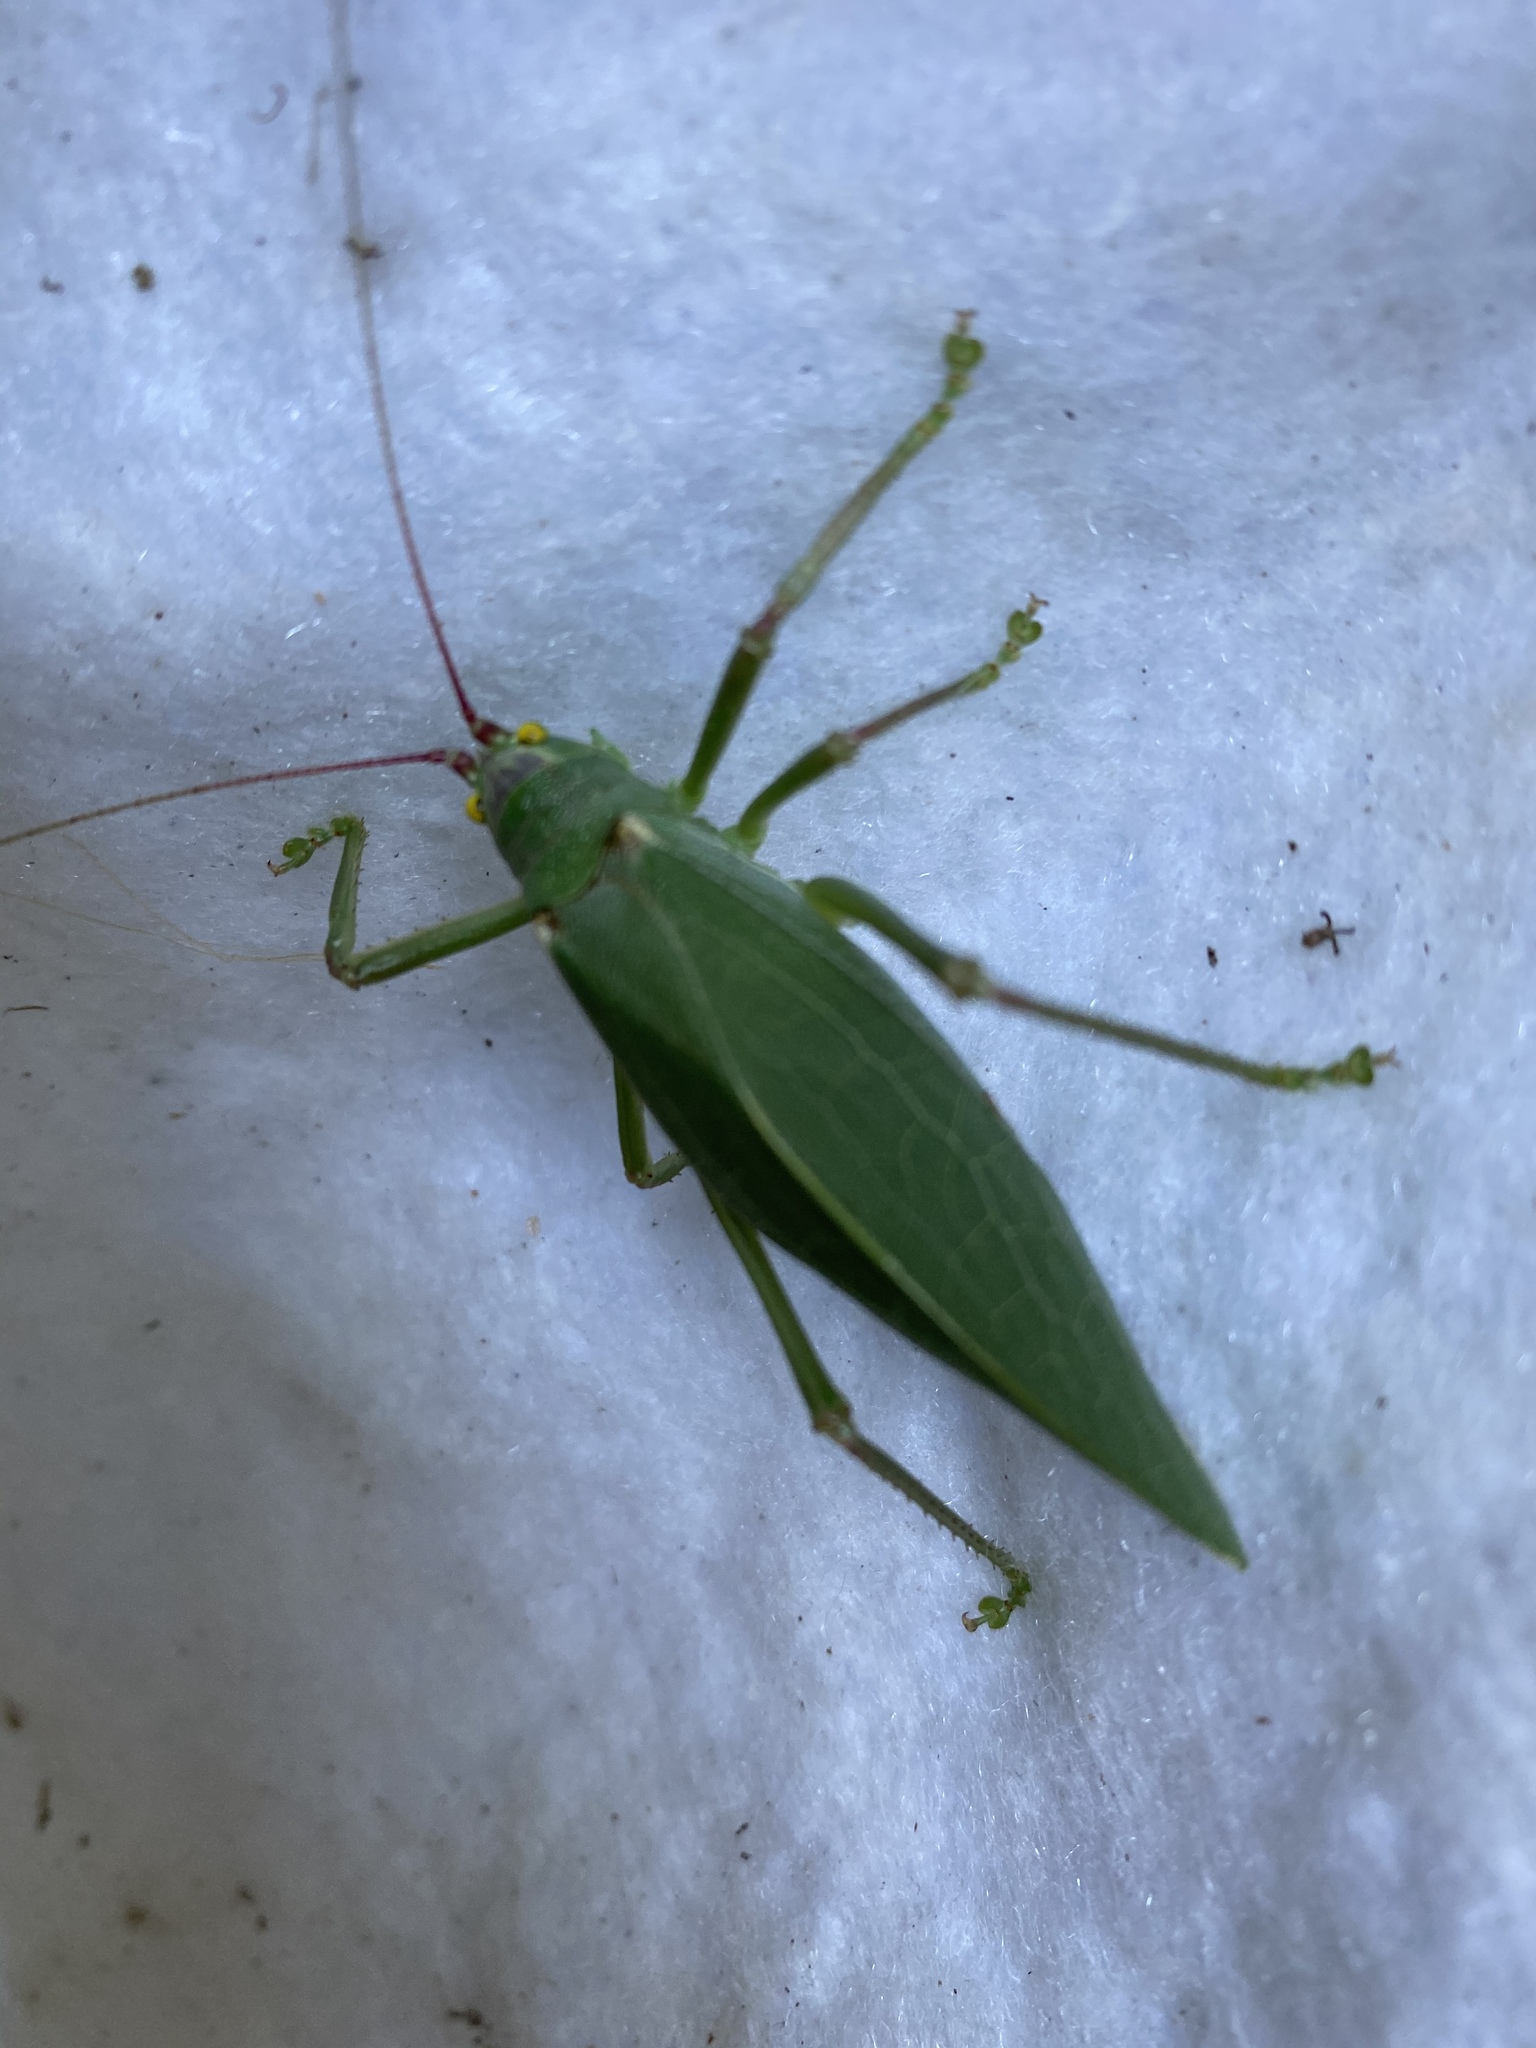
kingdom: Animalia
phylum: Arthropoda
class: Insecta
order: Orthoptera
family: Tettigoniidae
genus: Pterophylla
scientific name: Pterophylla camellifolia
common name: Common true katydid
